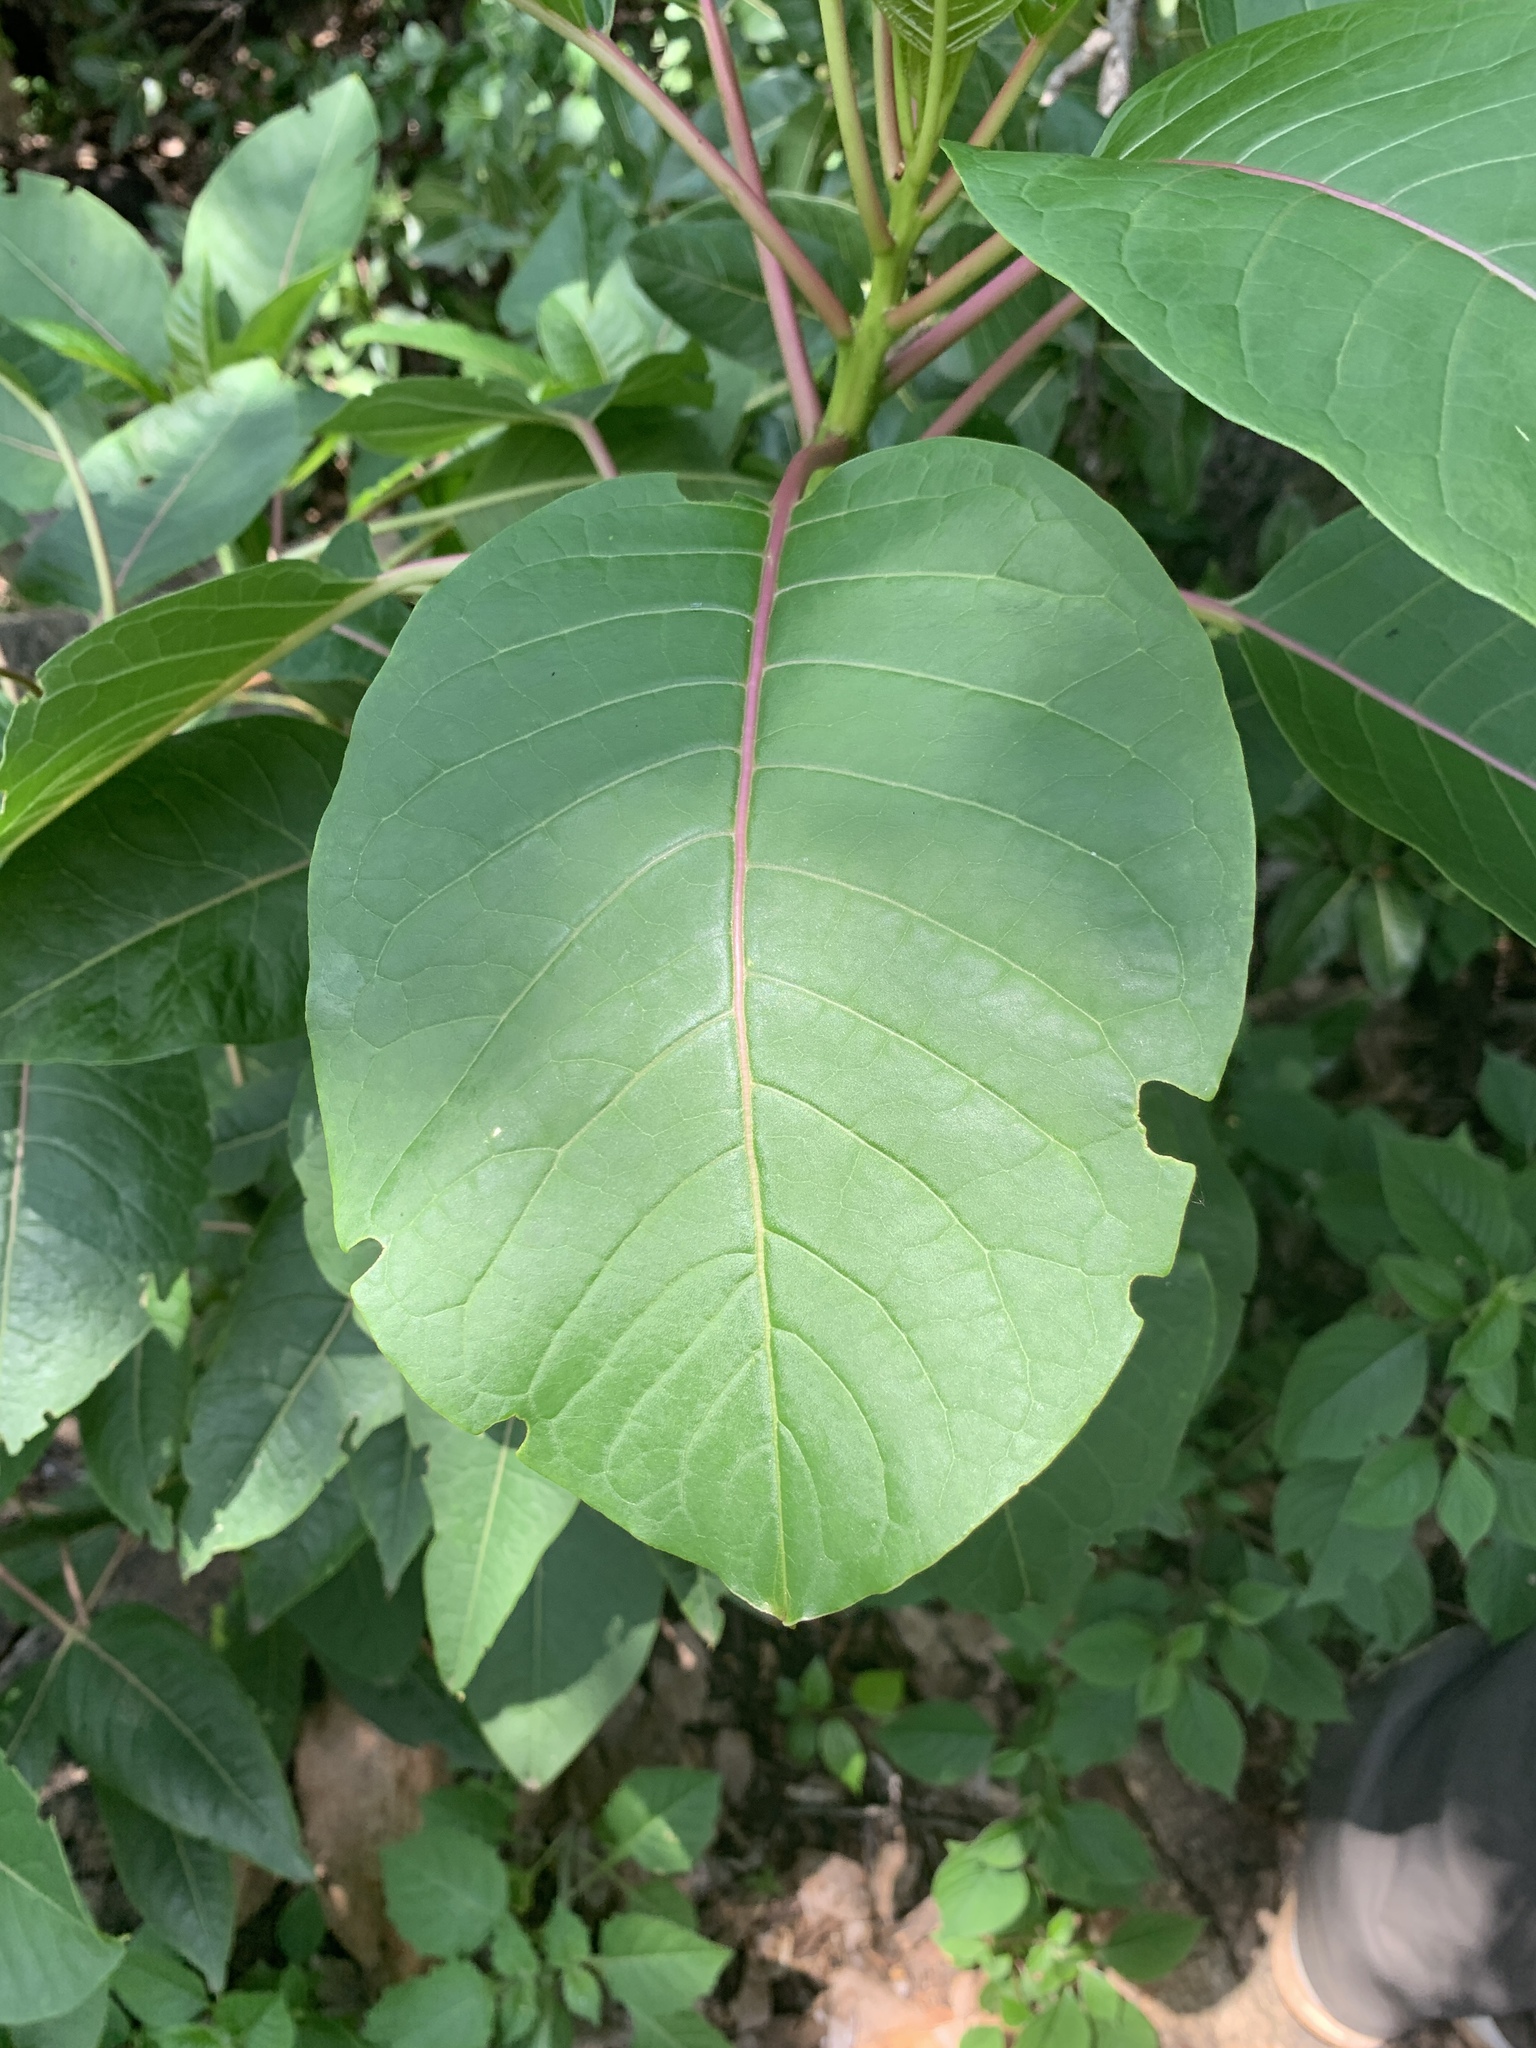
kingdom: Plantae
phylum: Tracheophyta
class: Magnoliopsida
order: Caryophyllales
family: Phytolaccaceae
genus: Phytolacca
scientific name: Phytolacca dioica
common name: Pokeweed
